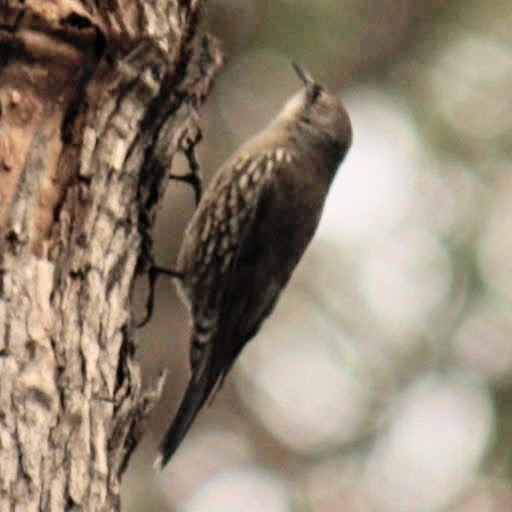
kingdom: Animalia
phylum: Chordata
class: Aves
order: Passeriformes
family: Climacteridae
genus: Cormobates
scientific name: Cormobates leucophaea
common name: White-throated treecreeper
